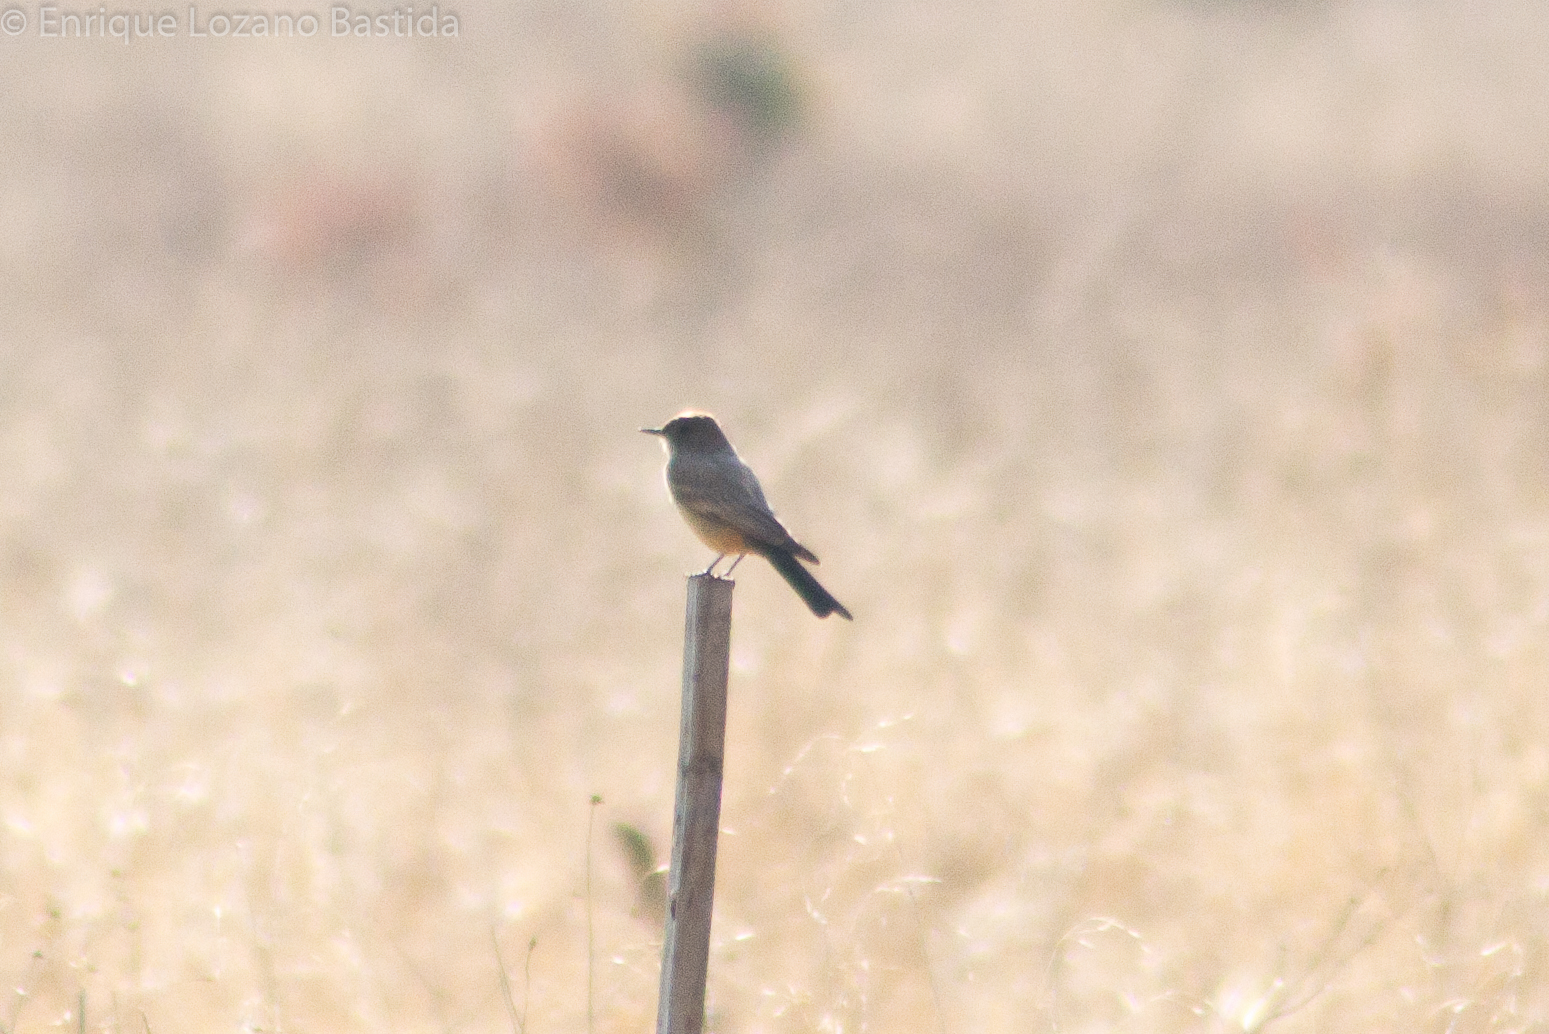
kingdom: Animalia
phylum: Chordata
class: Aves
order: Passeriformes
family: Tyrannidae
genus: Sayornis
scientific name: Sayornis saya
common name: Say's phoebe
